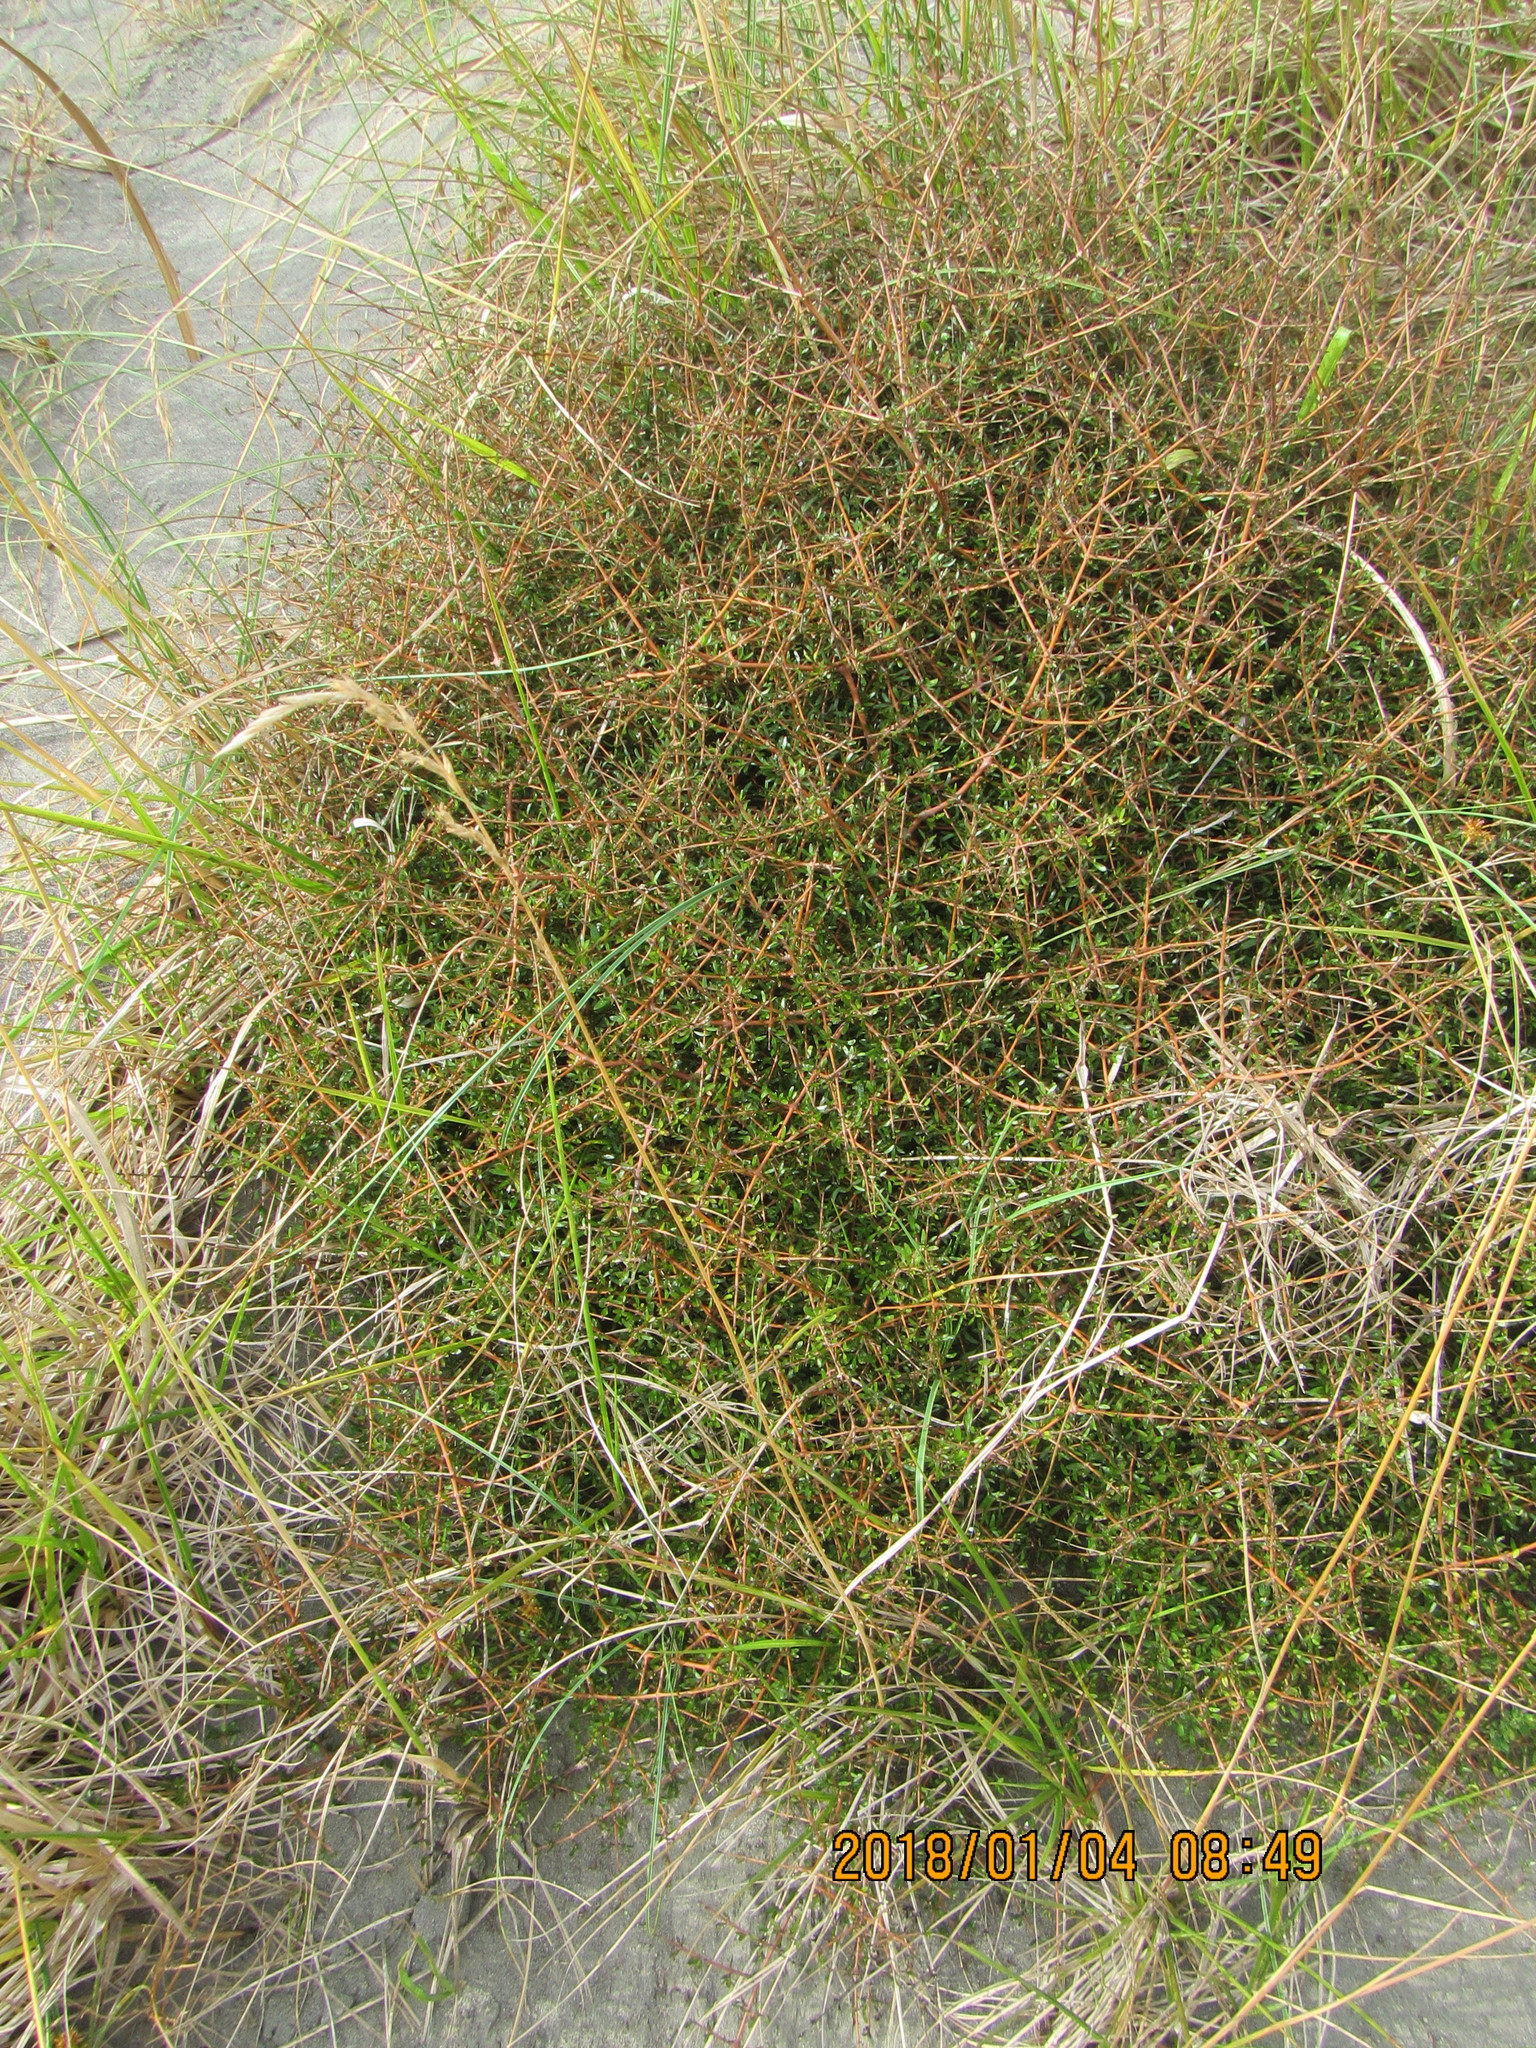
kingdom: Plantae
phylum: Tracheophyta
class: Magnoliopsida
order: Gentianales
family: Rubiaceae
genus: Coprosma
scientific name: Coprosma propinqua
